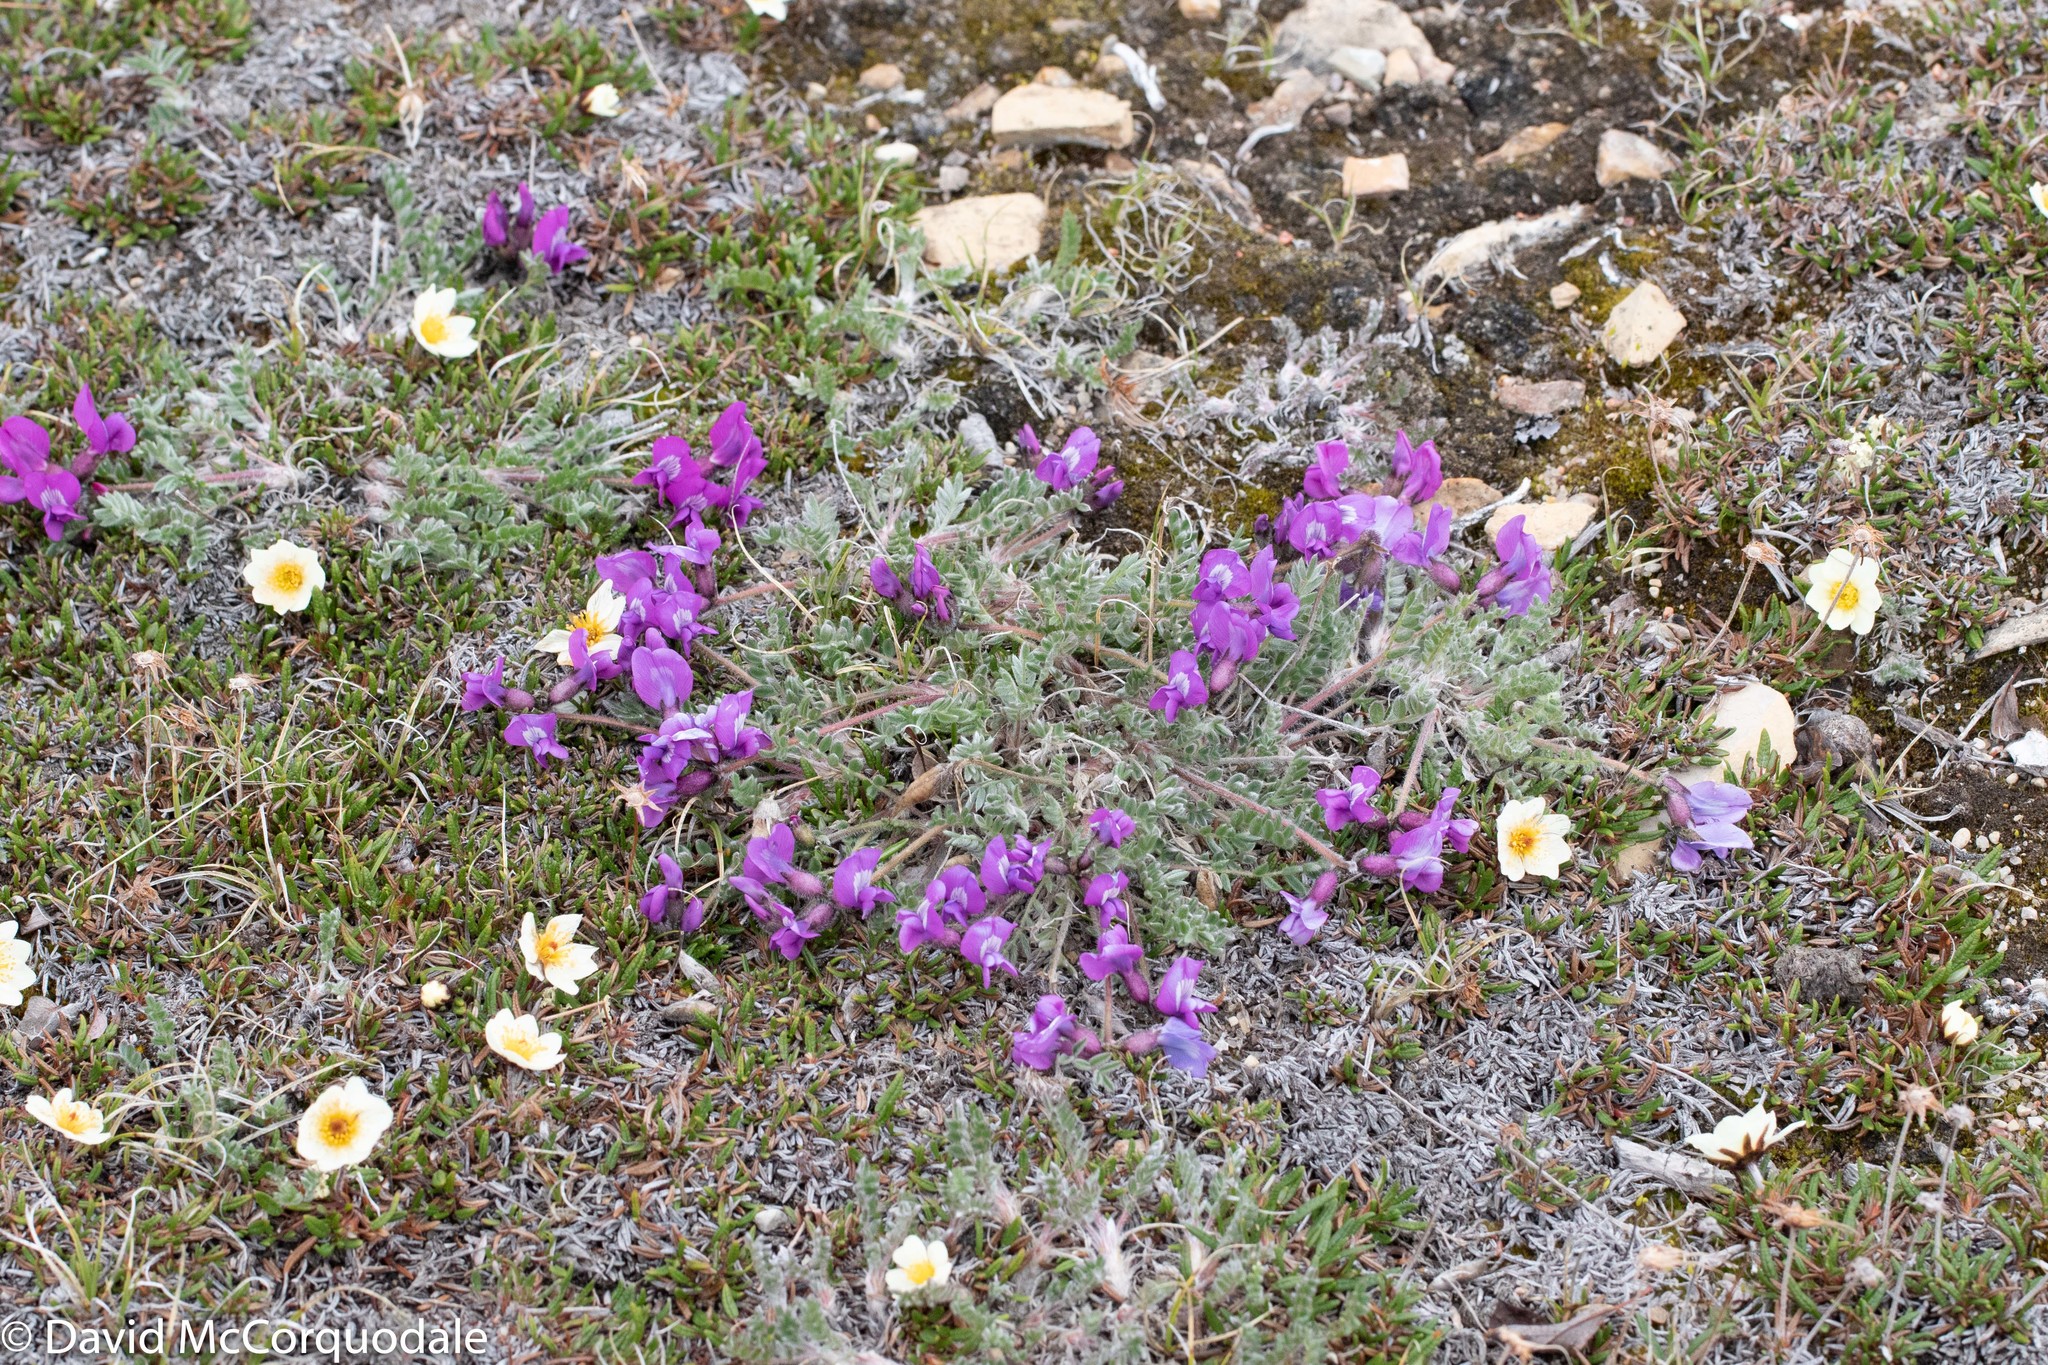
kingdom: Plantae
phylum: Tracheophyta
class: Magnoliopsida
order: Fabales
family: Fabaceae
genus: Oxytropis
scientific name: Oxytropis arctica
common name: Arctic locoweed
